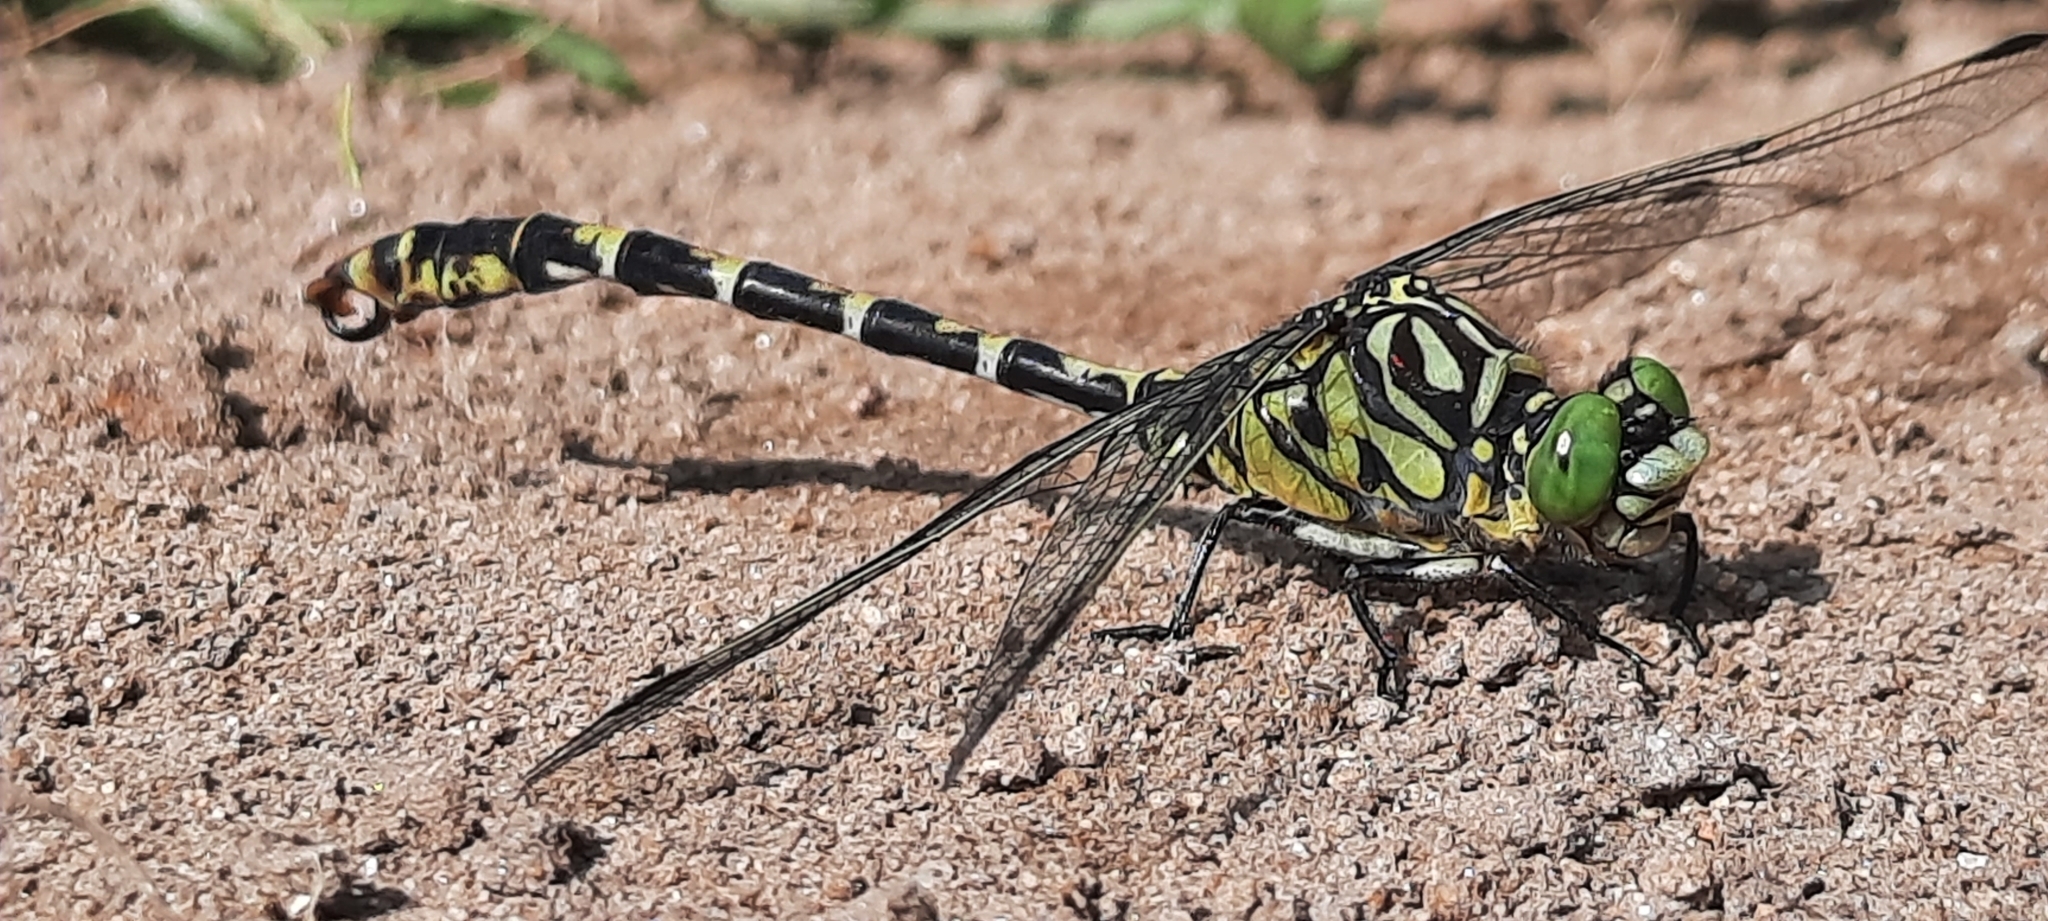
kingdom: Animalia
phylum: Arthropoda
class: Insecta
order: Odonata
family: Gomphidae
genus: Onychogomphus
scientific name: Onychogomphus forcipatus
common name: Small pincertail
